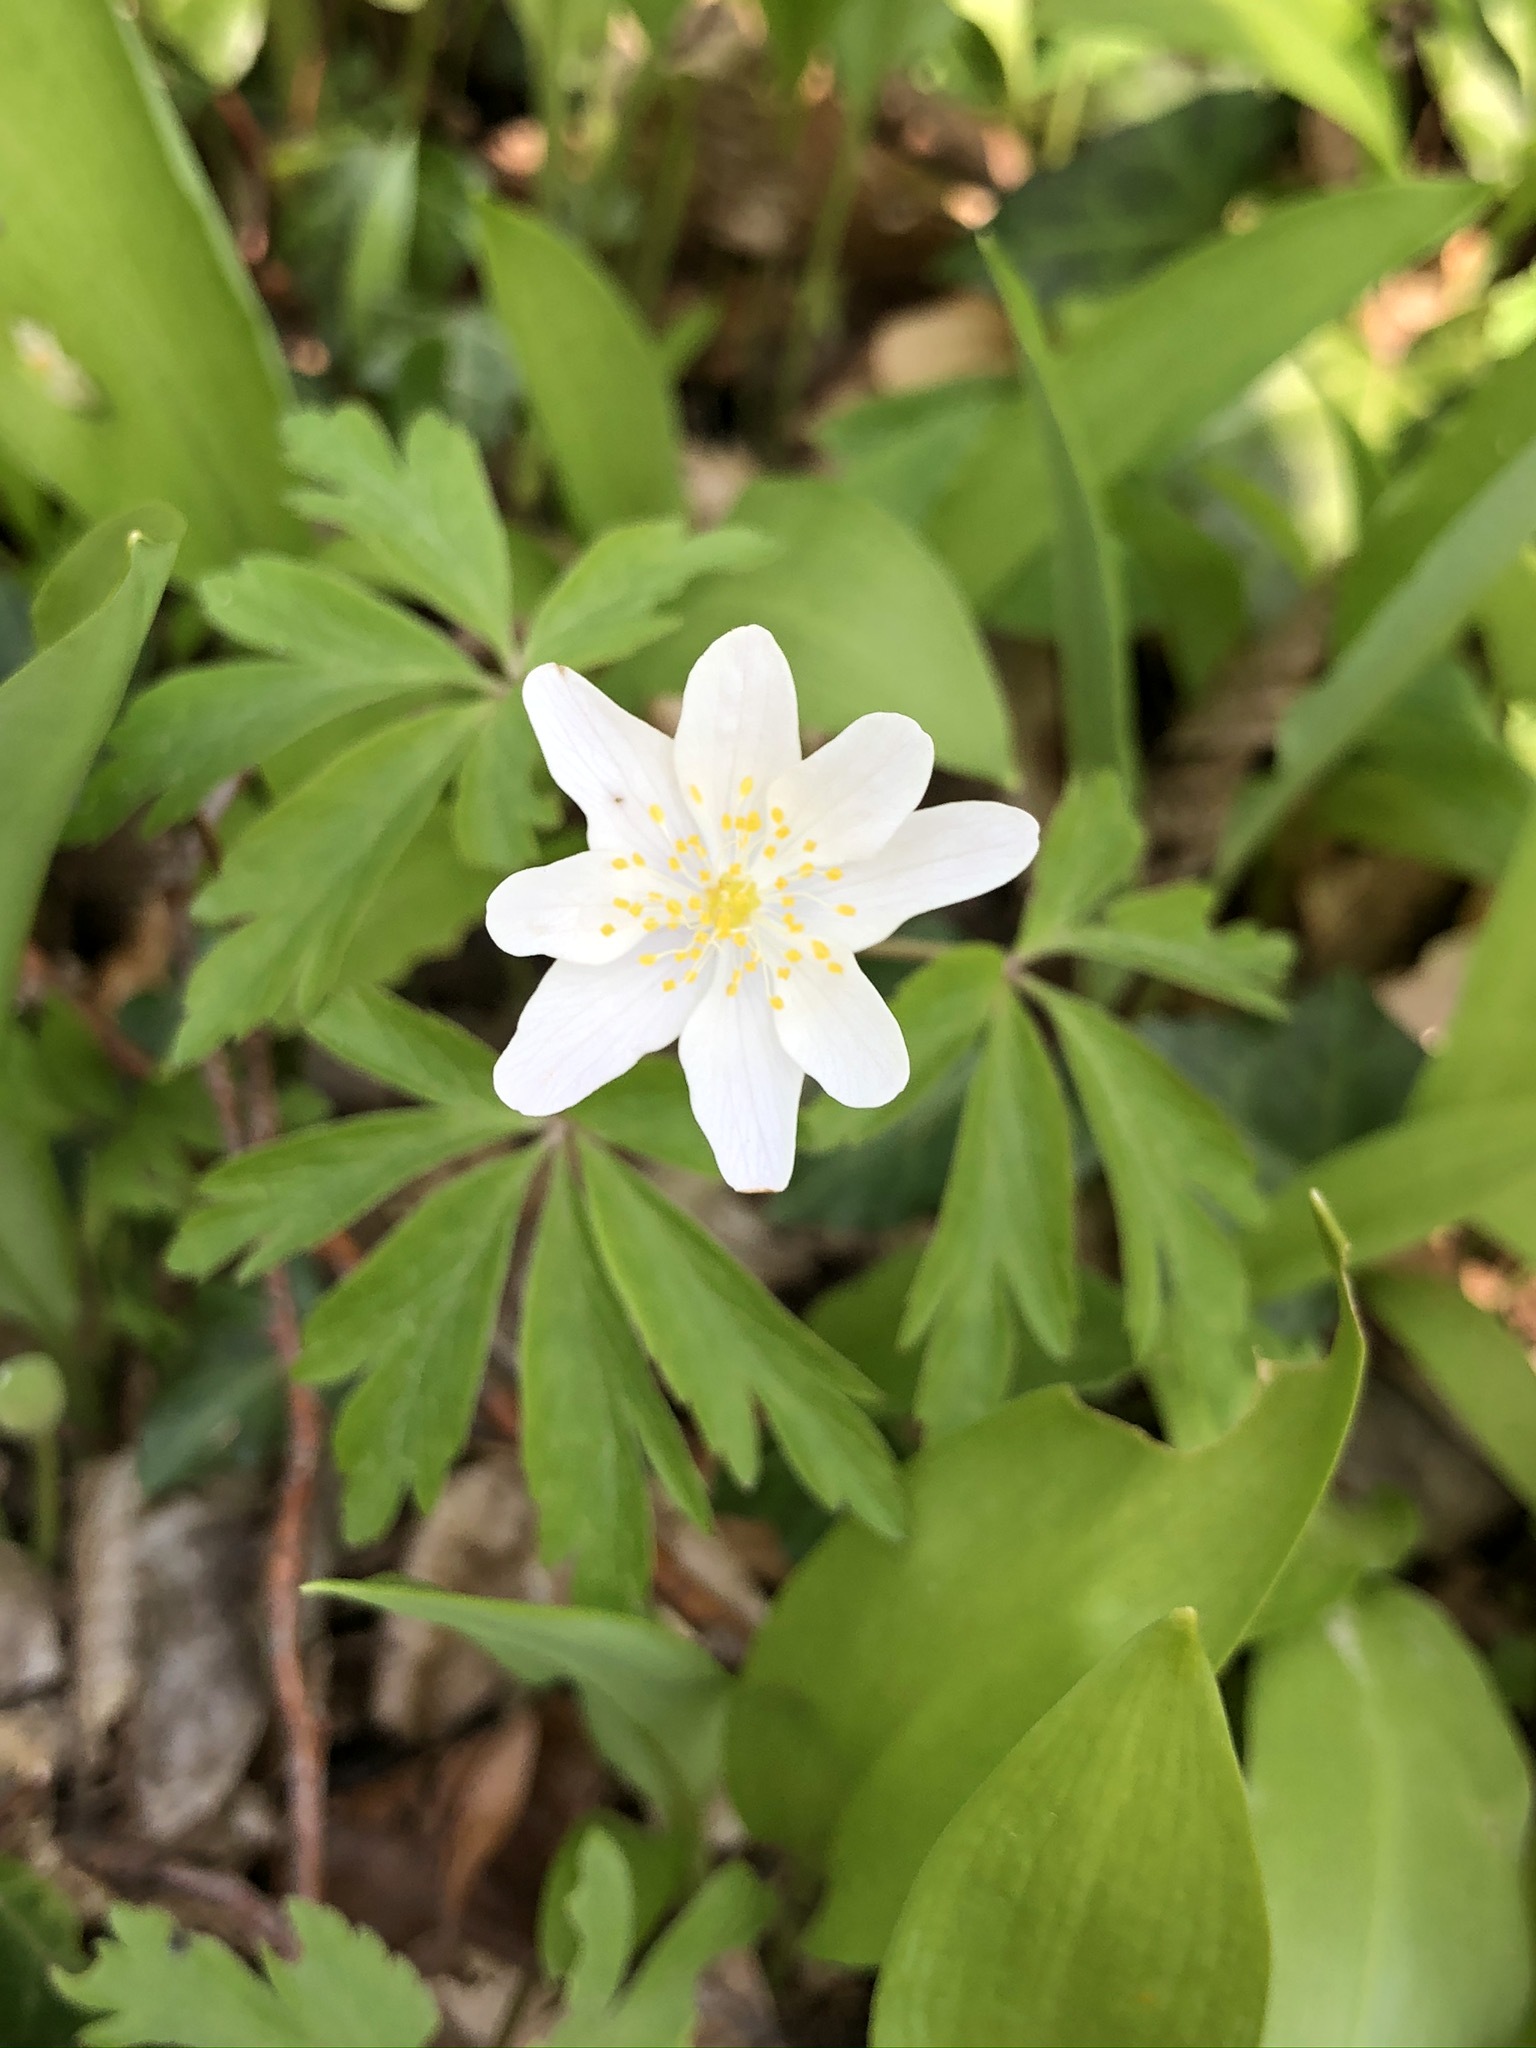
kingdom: Plantae
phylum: Tracheophyta
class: Magnoliopsida
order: Ranunculales
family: Ranunculaceae
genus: Anemone
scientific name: Anemone nemorosa
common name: Wood anemone
